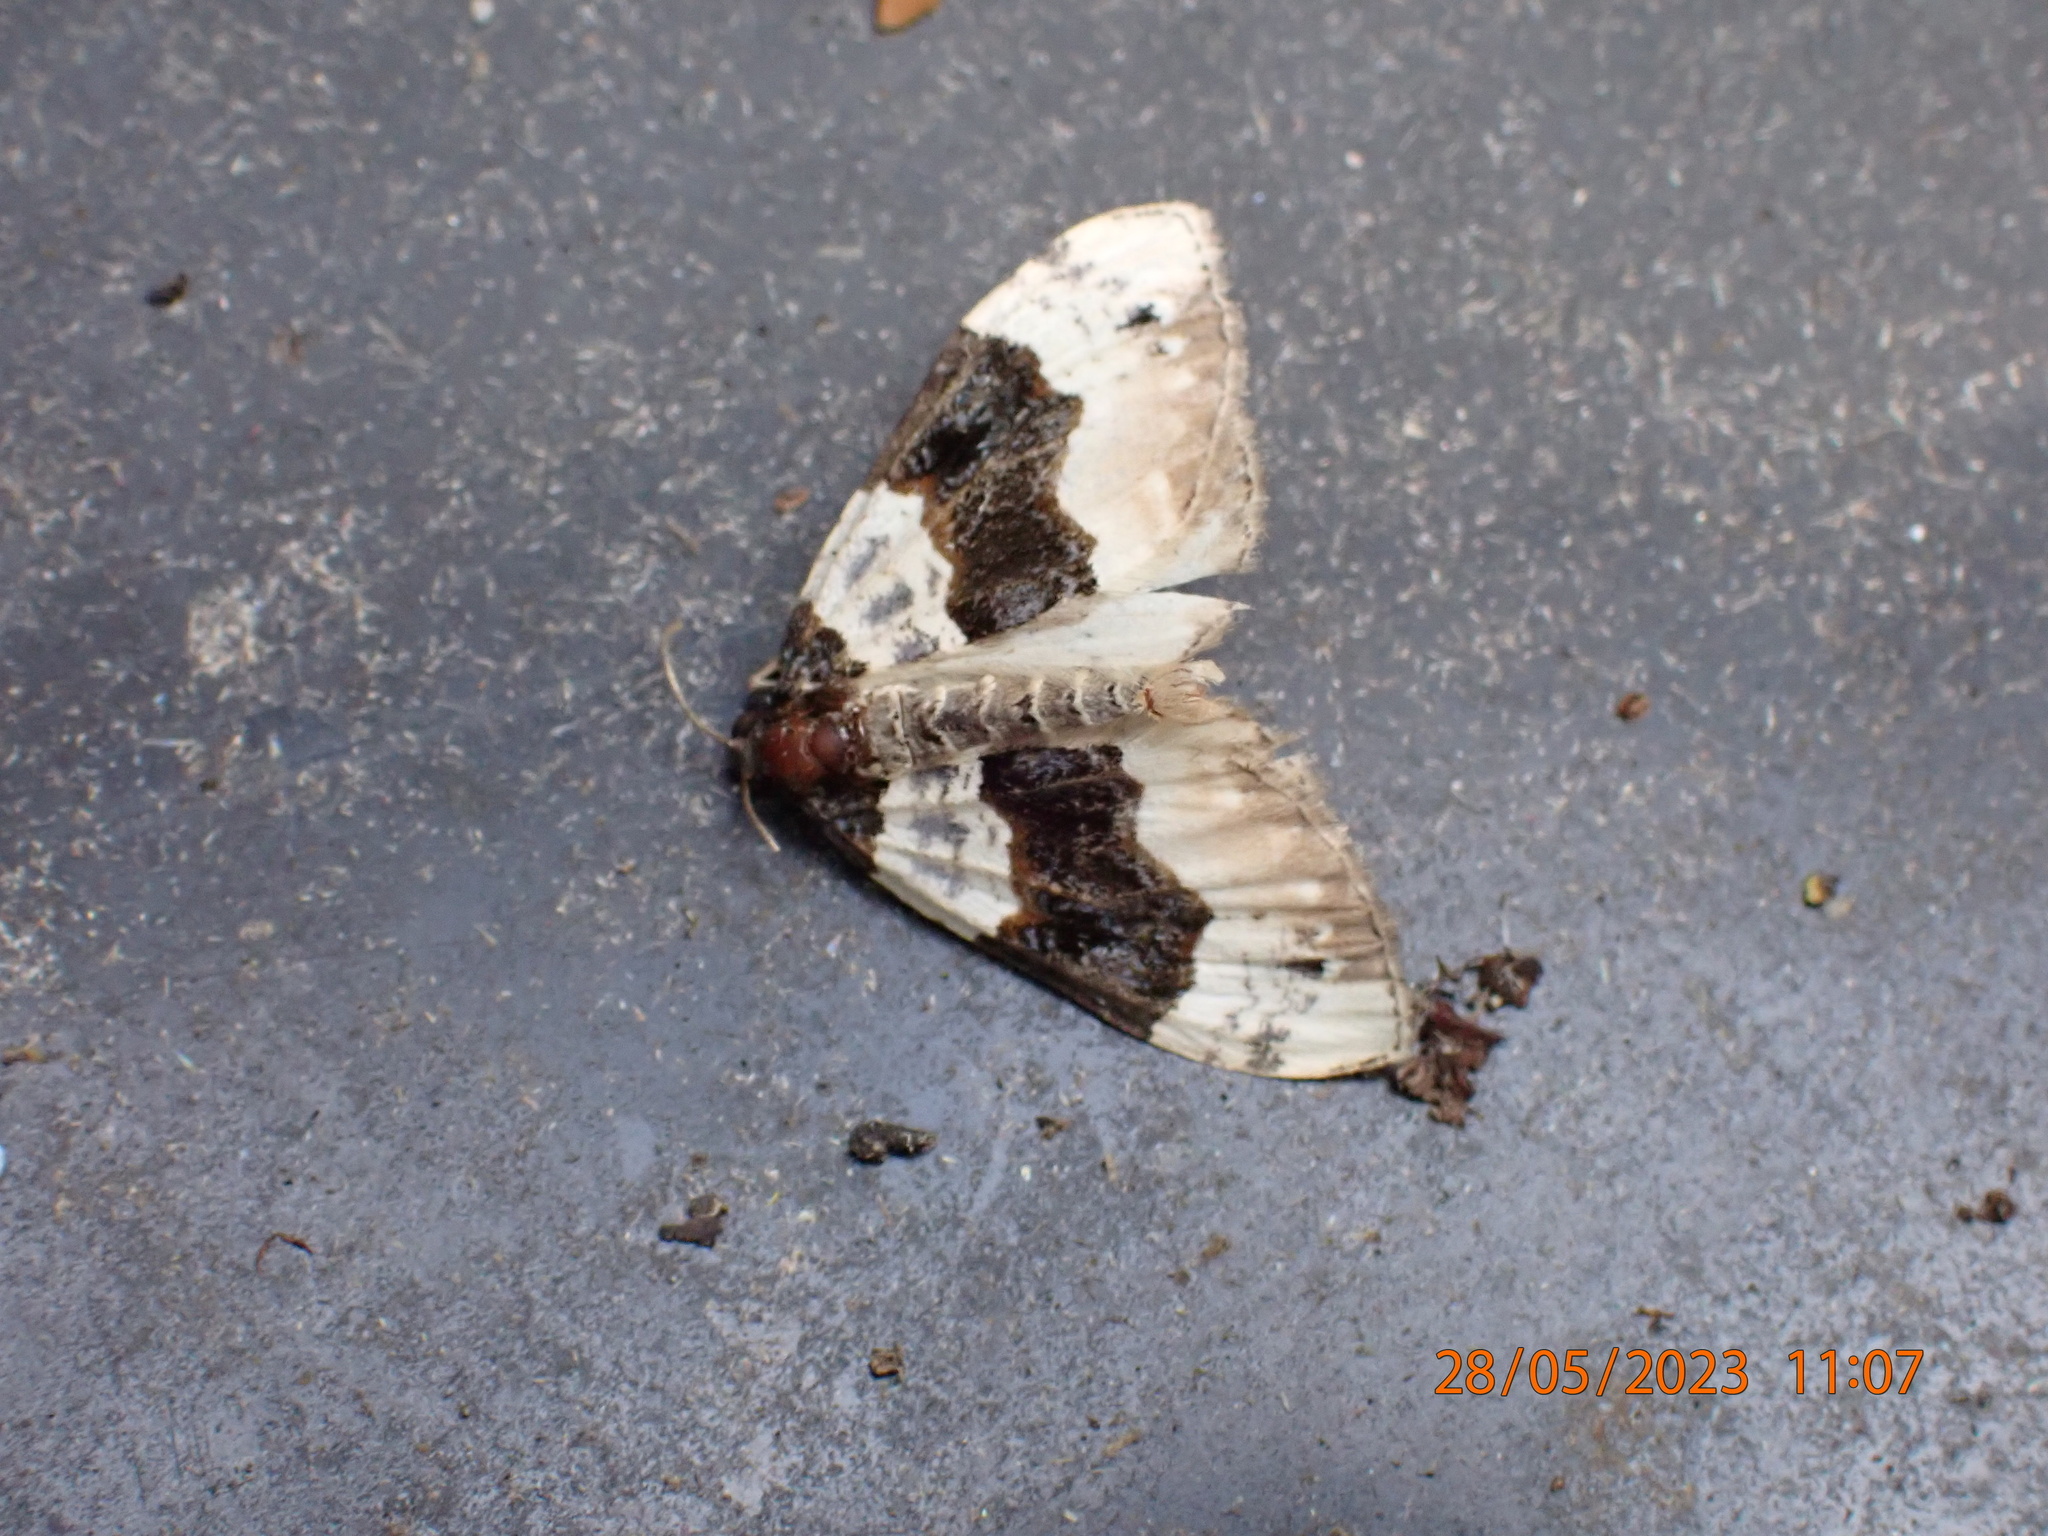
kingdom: Animalia
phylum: Arthropoda
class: Insecta
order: Lepidoptera
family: Geometridae
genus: Cosmorhoe
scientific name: Cosmorhoe ocellata
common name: Purple bar
